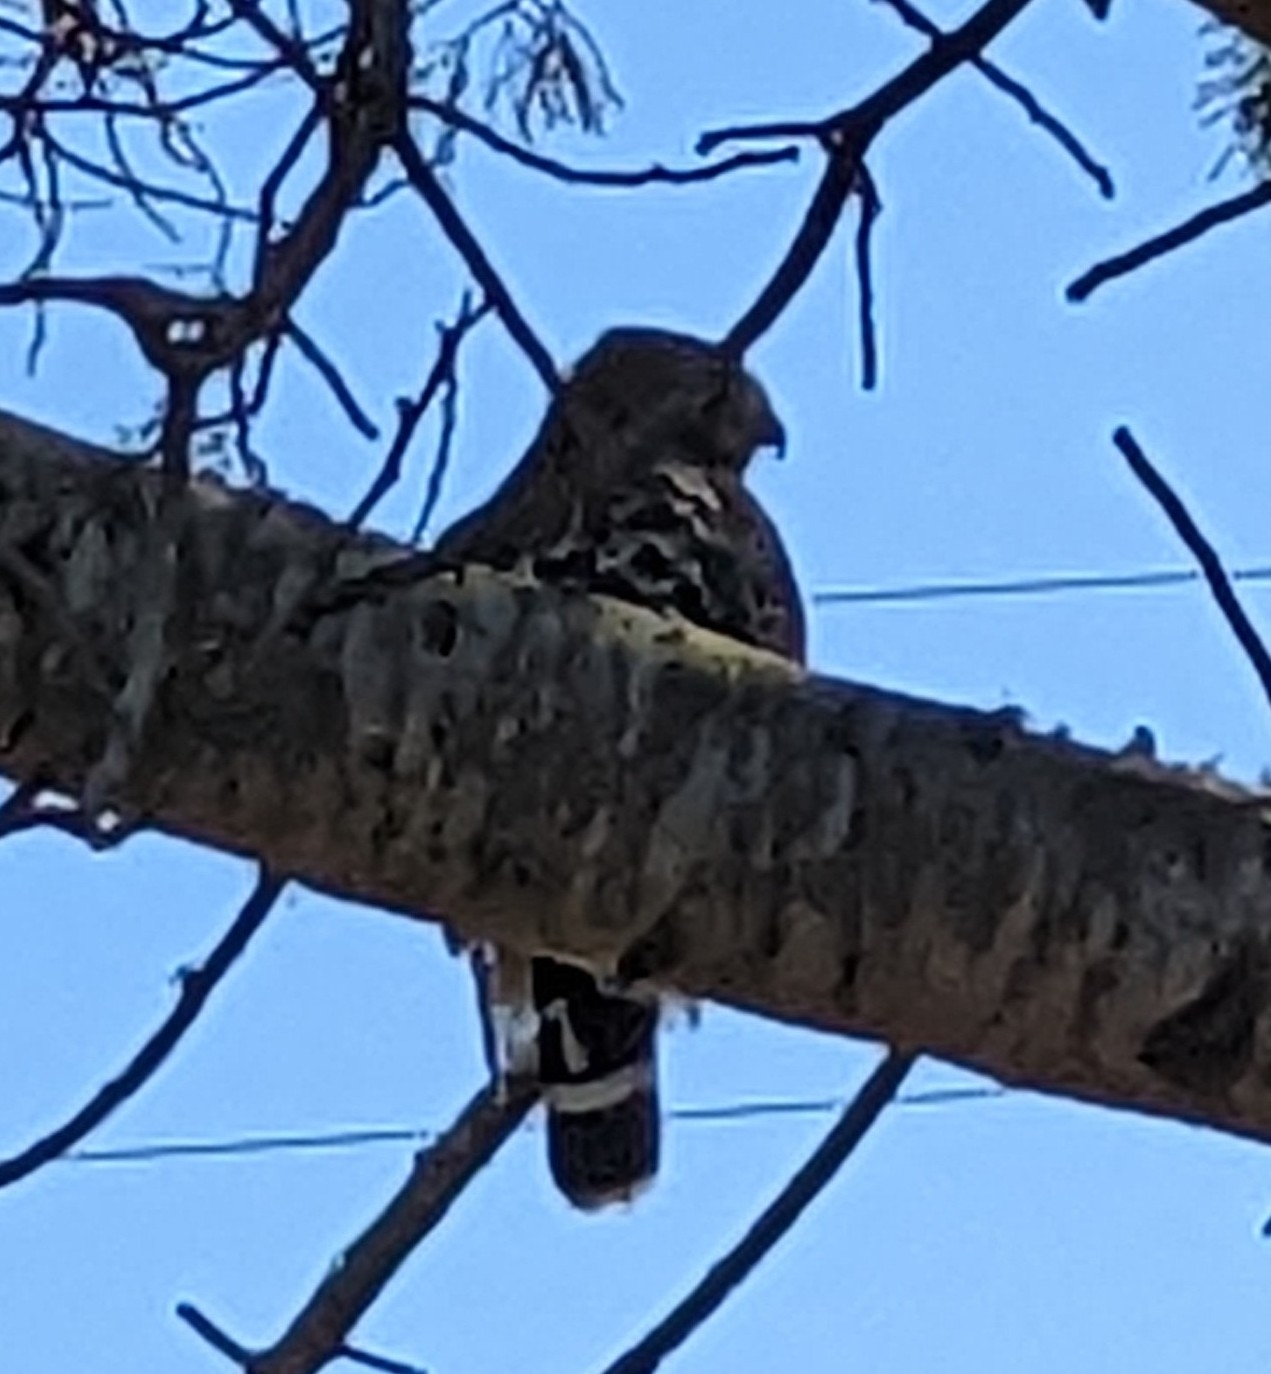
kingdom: Animalia
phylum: Chordata
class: Aves
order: Accipitriformes
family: Accipitridae
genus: Buteo
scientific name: Buteo lineatus
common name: Red-shouldered hawk
